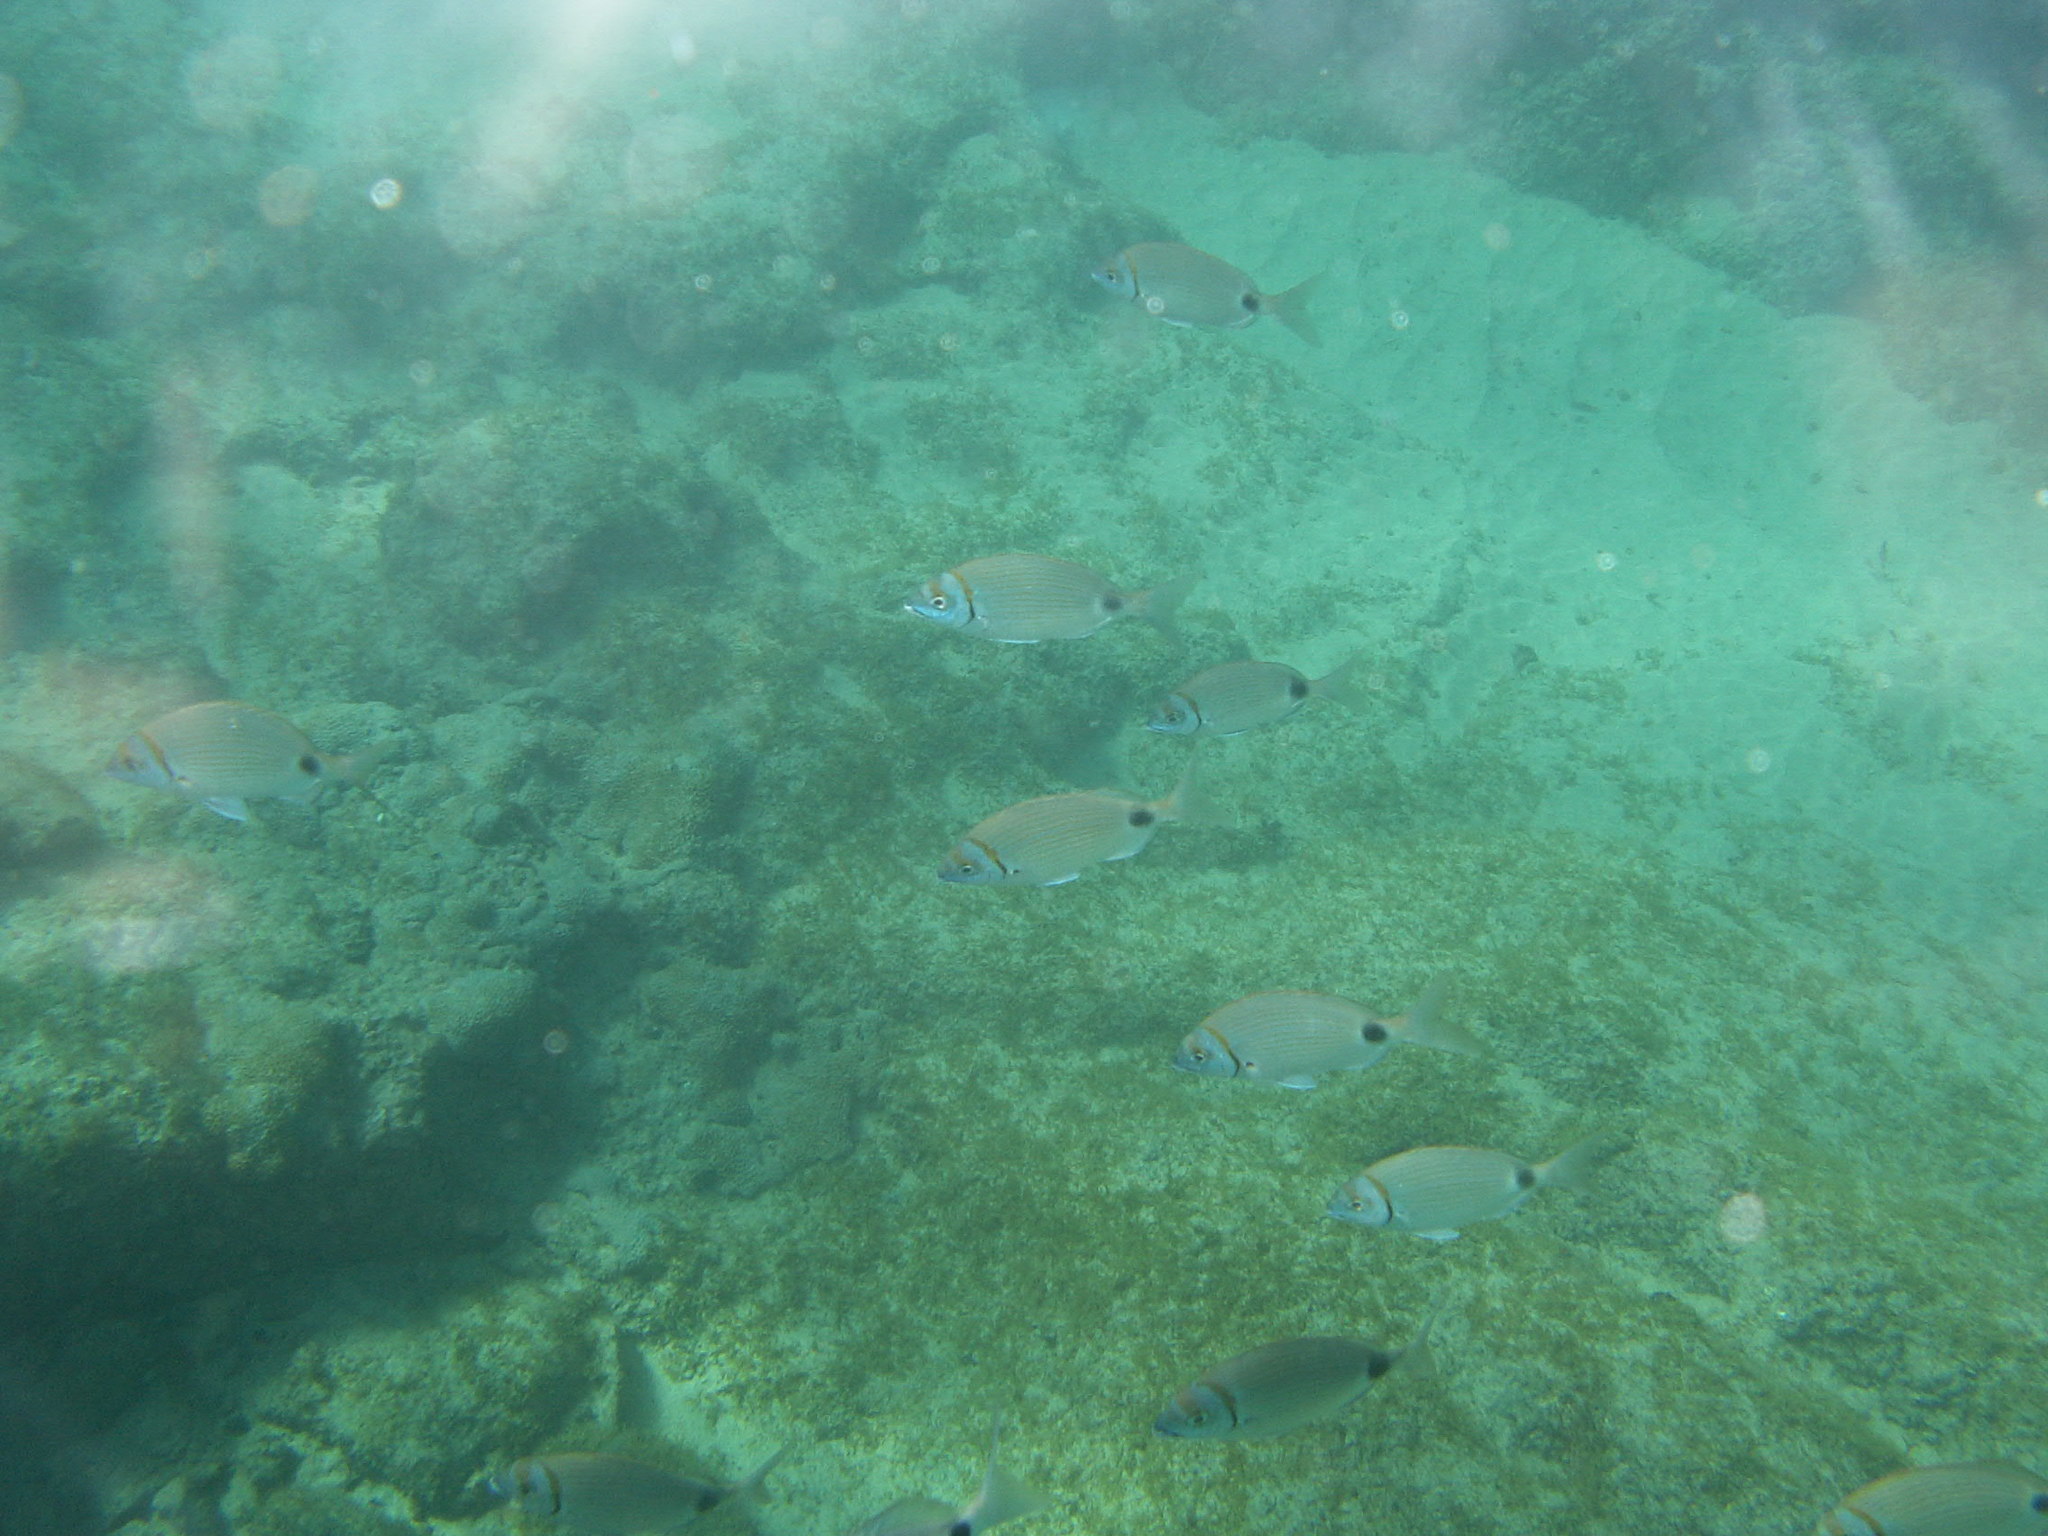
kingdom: Animalia
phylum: Chordata
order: Perciformes
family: Sparidae
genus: Diplodus
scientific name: Diplodus prayensis
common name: Two-banded seabream
